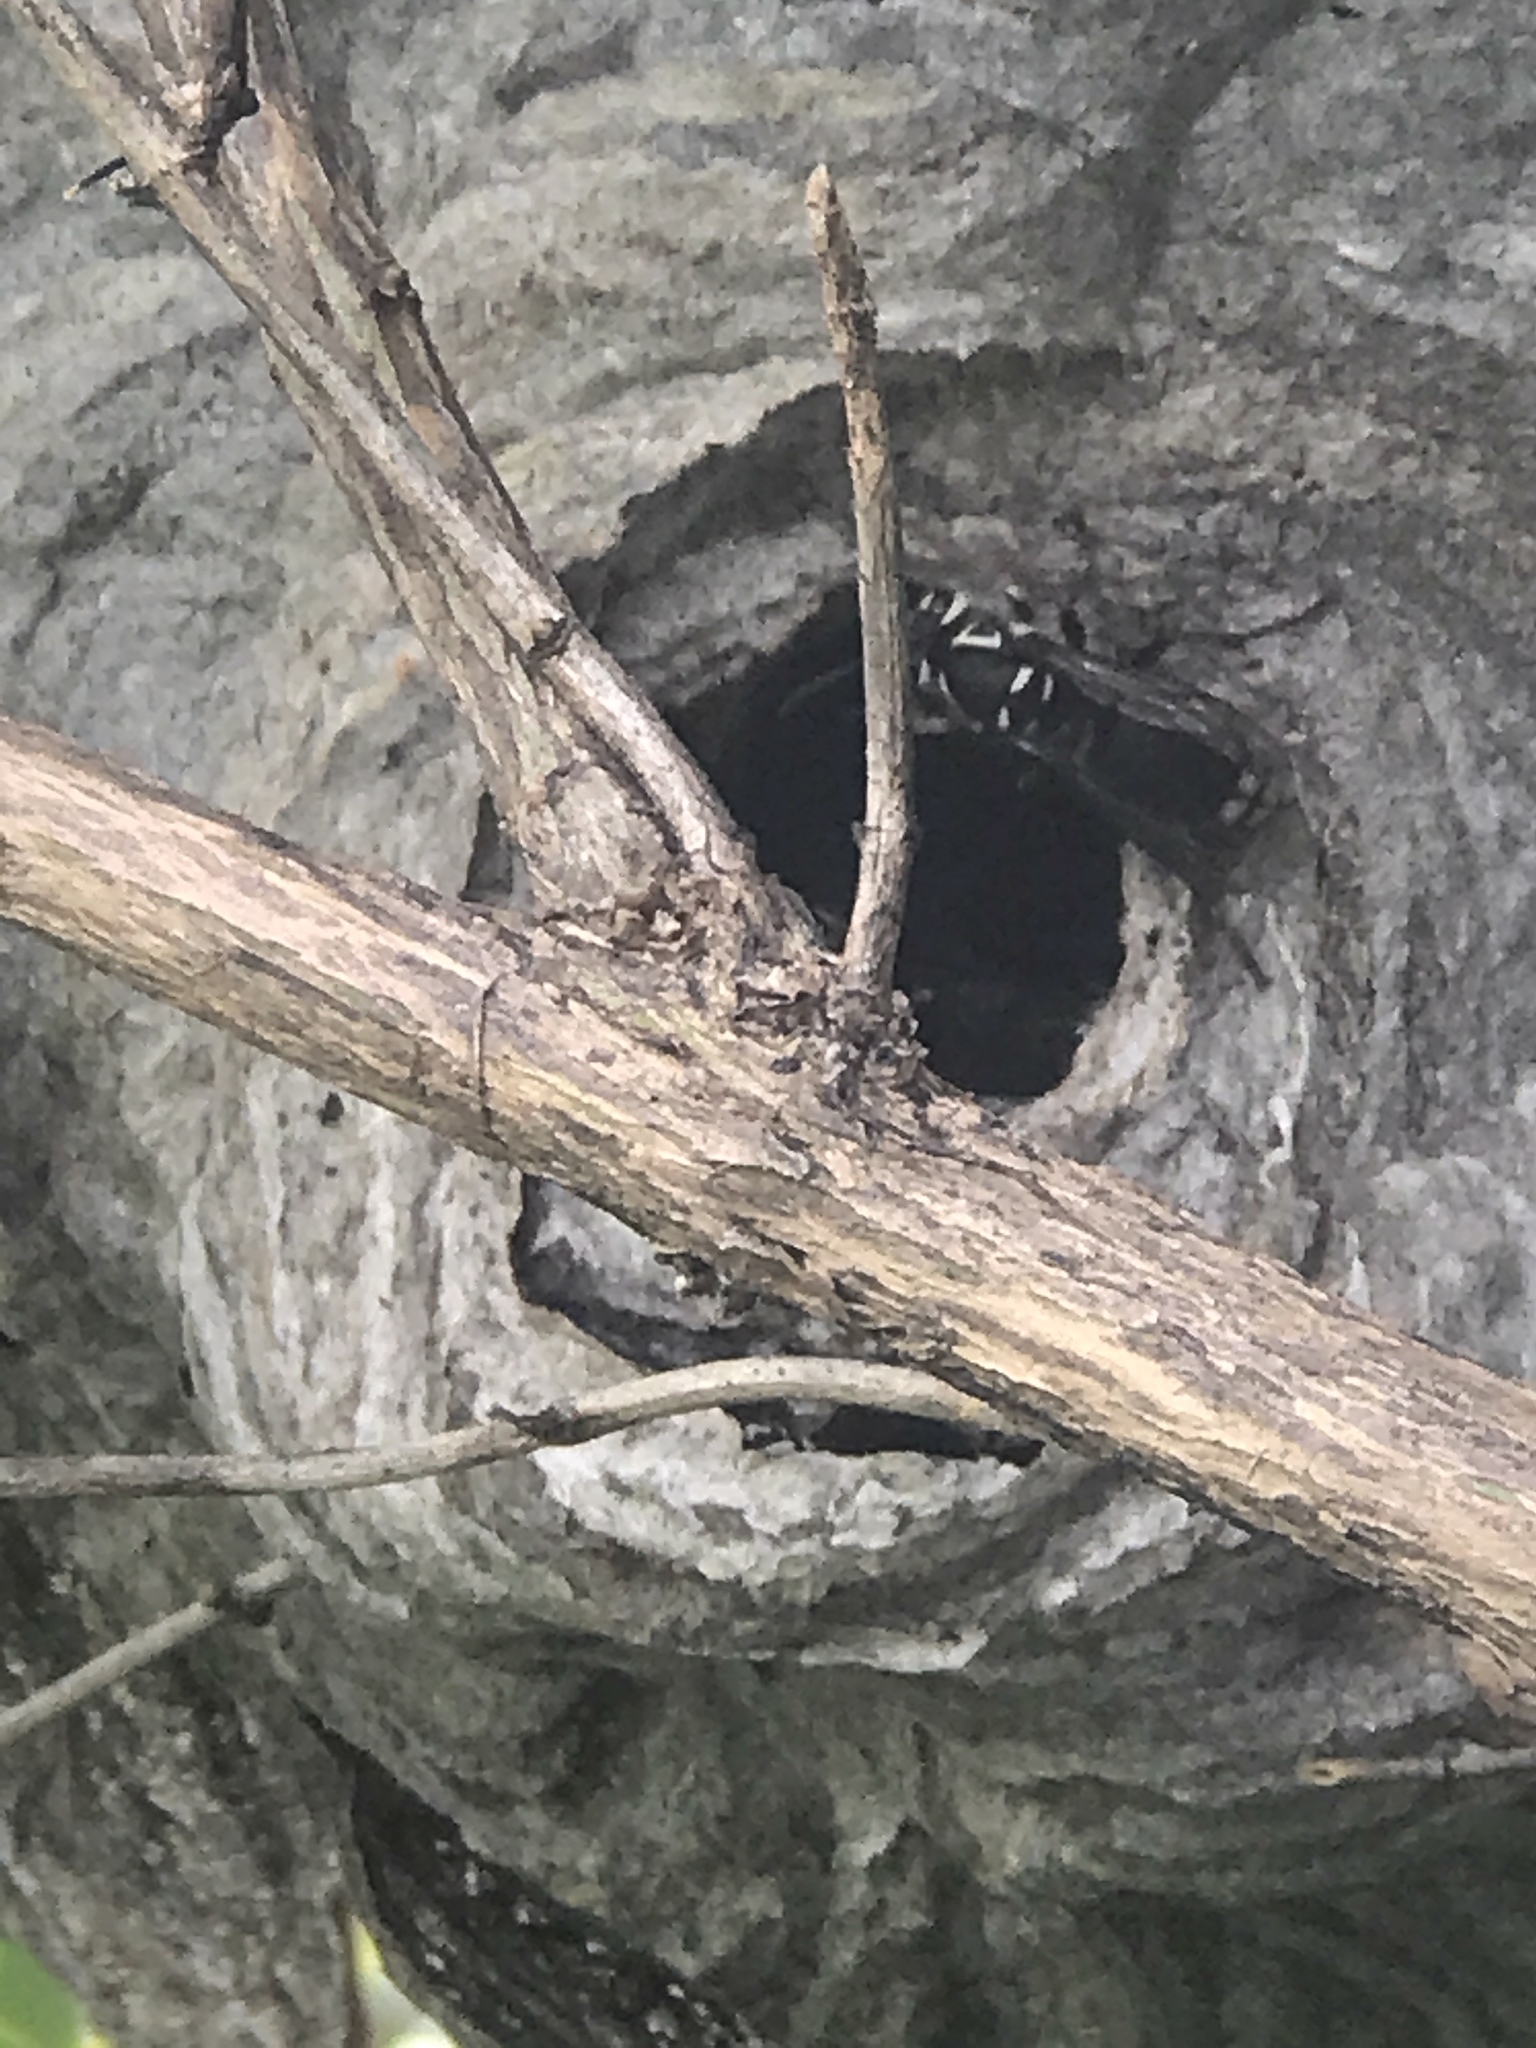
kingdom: Animalia
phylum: Arthropoda
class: Insecta
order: Hymenoptera
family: Vespidae
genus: Dolichovespula
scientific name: Dolichovespula maculata
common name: Bald-faced hornet
